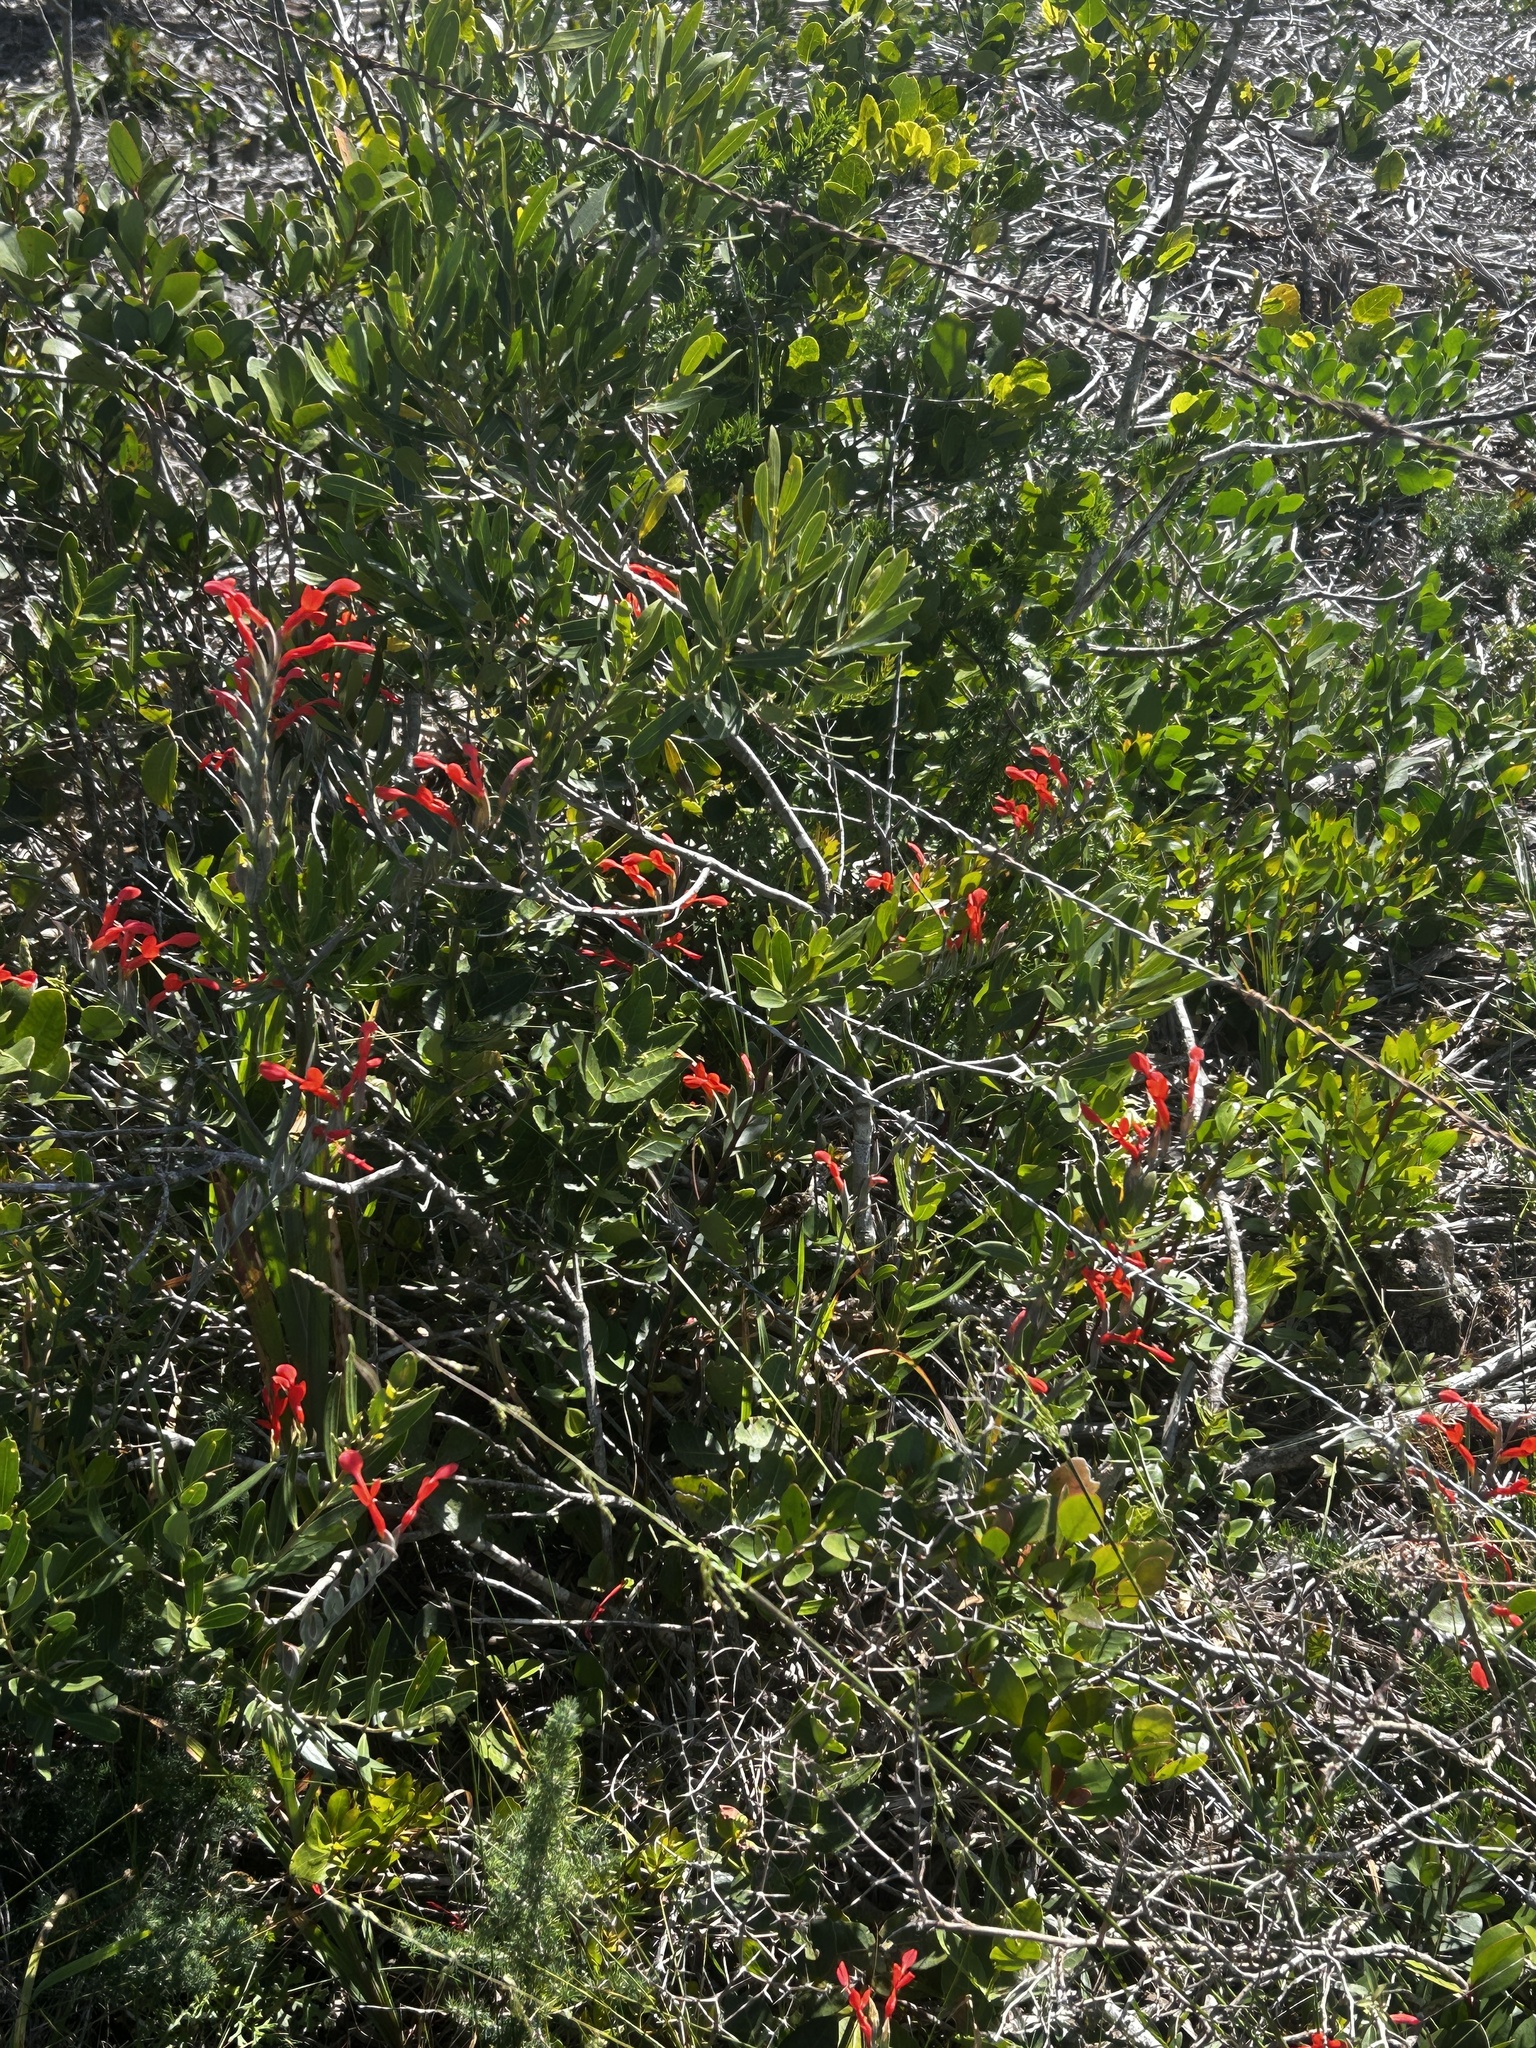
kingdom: Plantae
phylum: Tracheophyta
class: Liliopsida
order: Asparagales
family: Iridaceae
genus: Gladiolus
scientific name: Gladiolus cunonius
